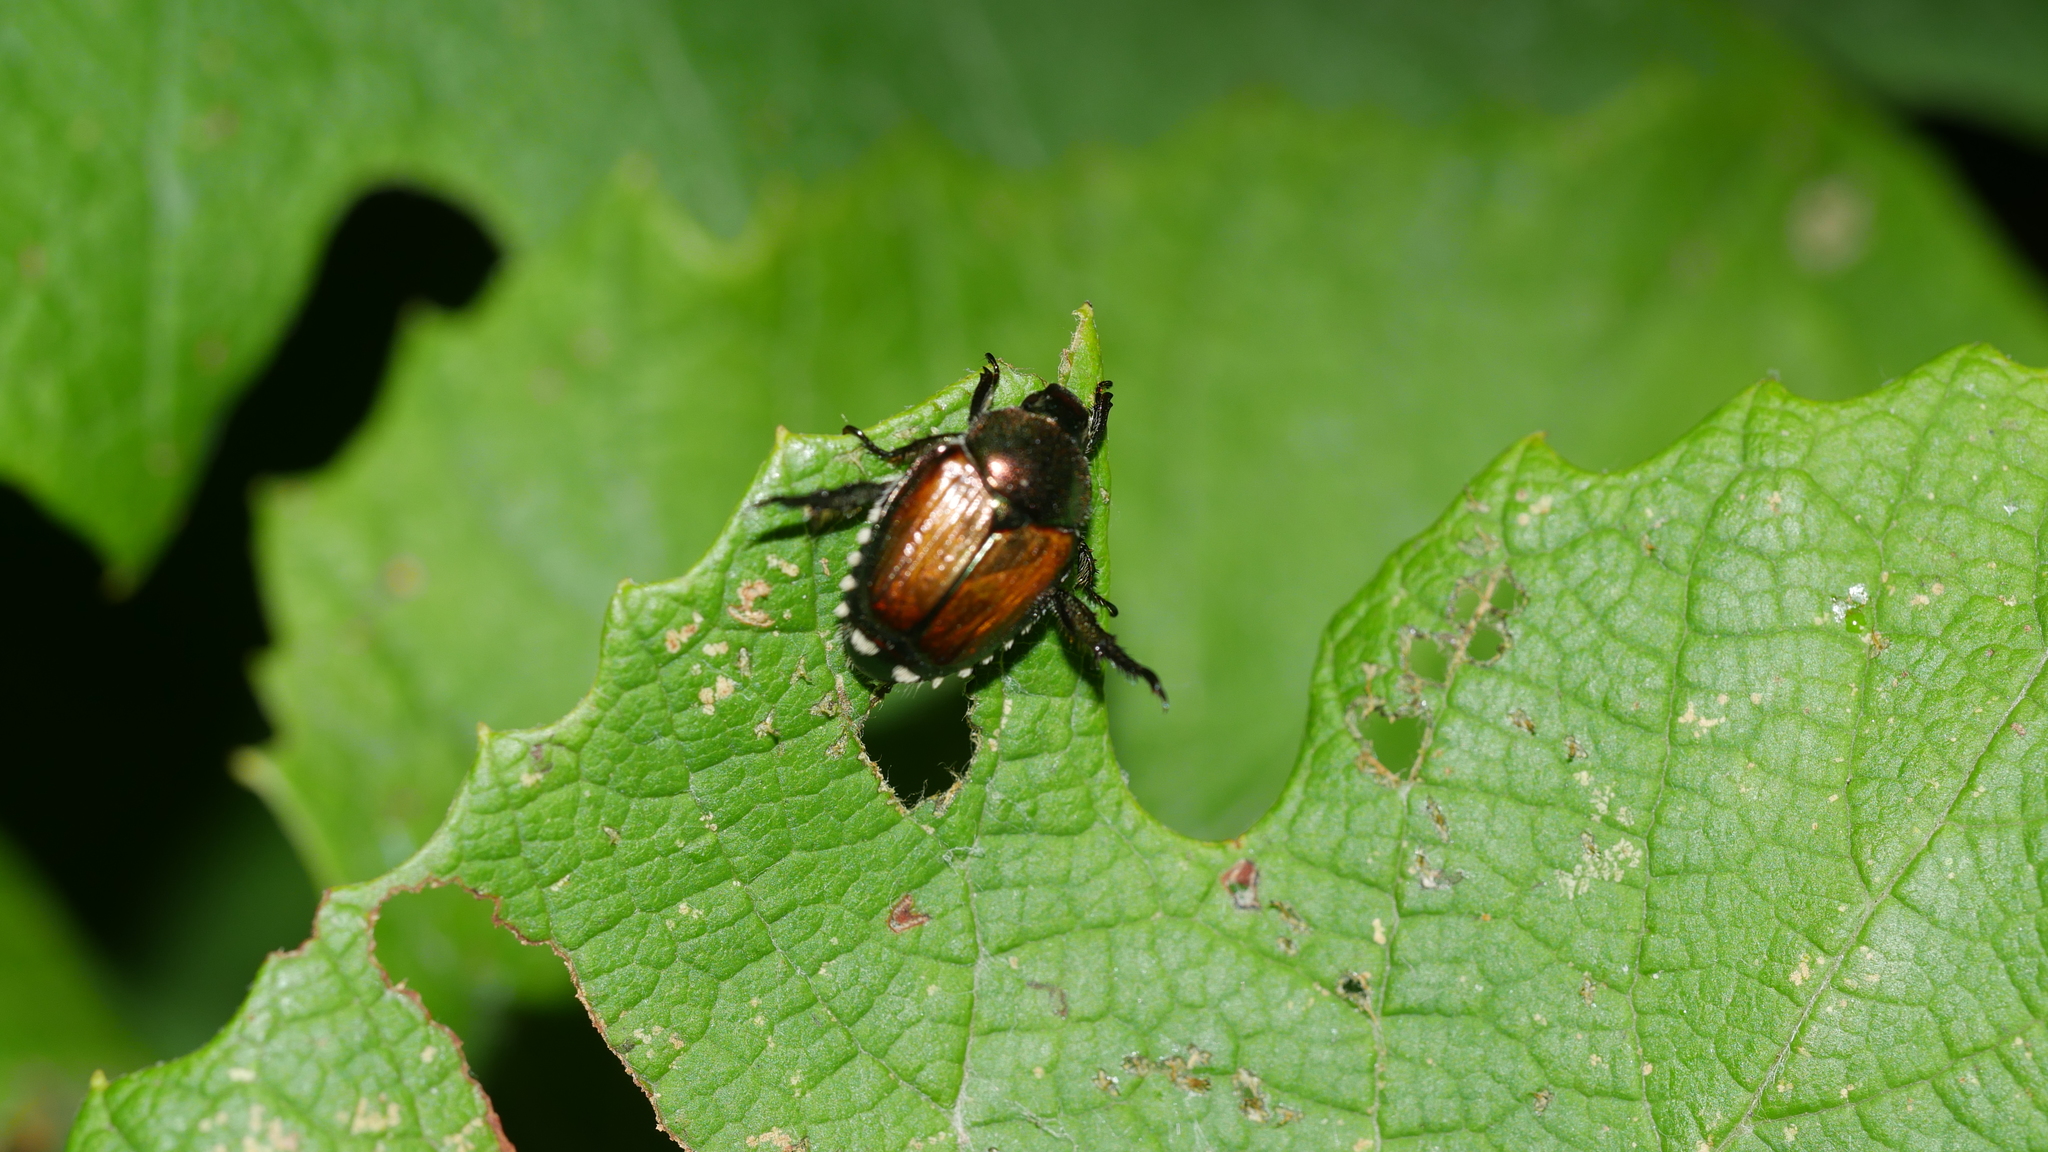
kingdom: Animalia
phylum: Arthropoda
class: Insecta
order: Coleoptera
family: Scarabaeidae
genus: Popillia
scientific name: Popillia japonica
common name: Japanese beetle
